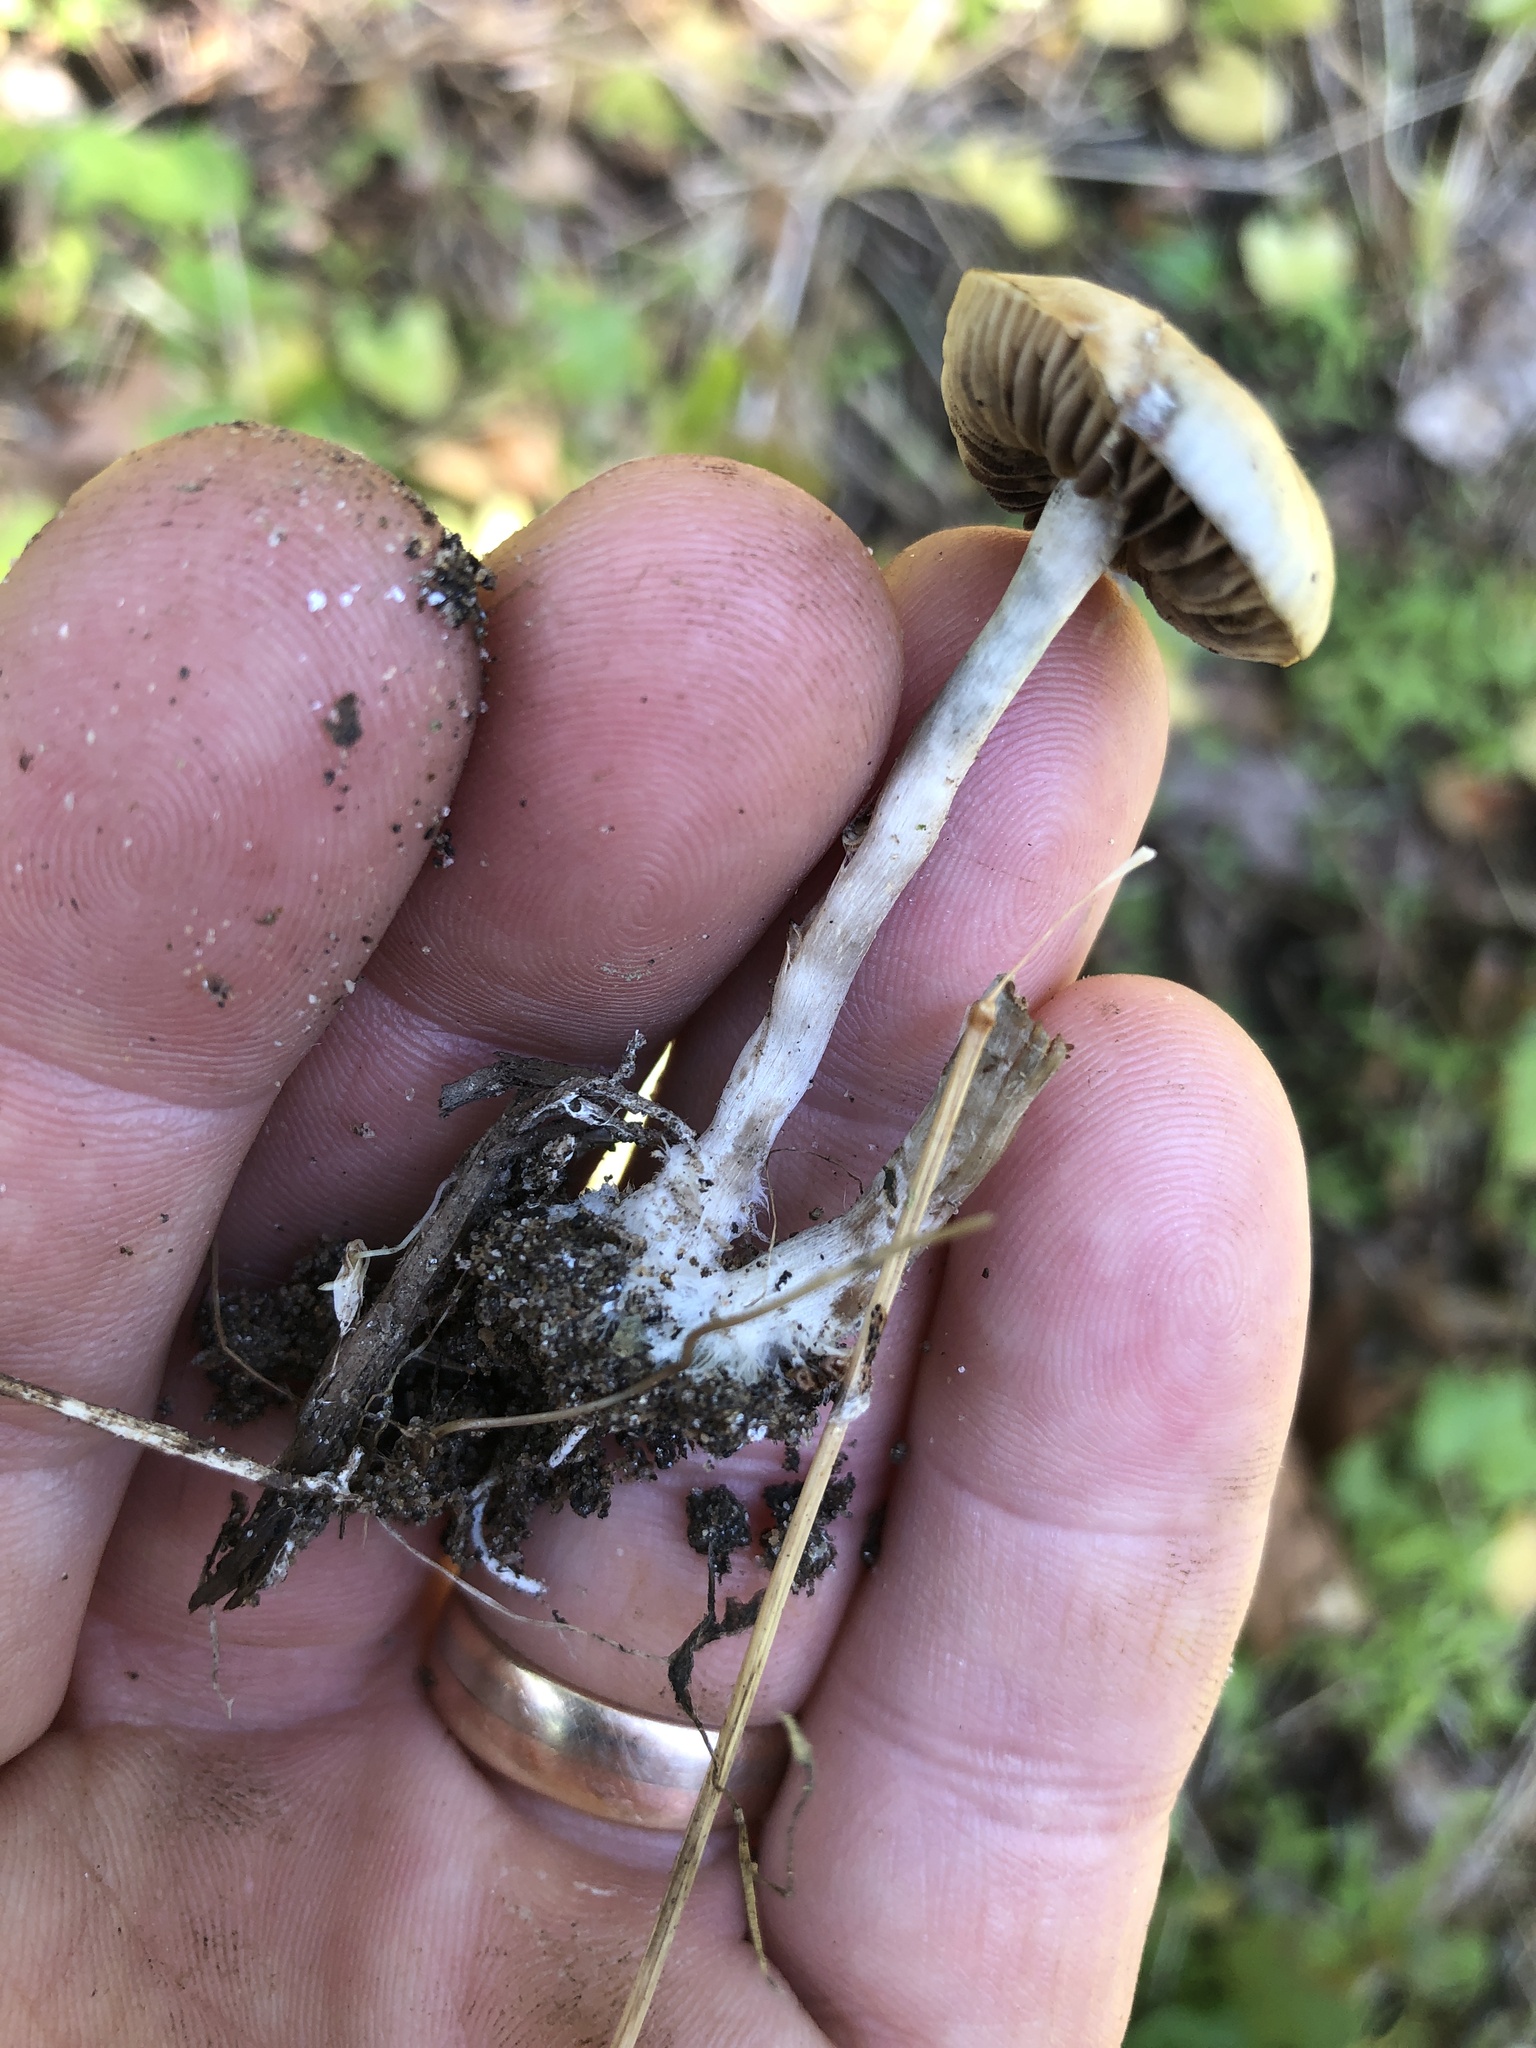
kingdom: Fungi
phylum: Basidiomycota
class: Agaricomycetes
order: Agaricales
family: Hymenogastraceae
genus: Psilocybe
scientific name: Psilocybe ovoideocystidiata
